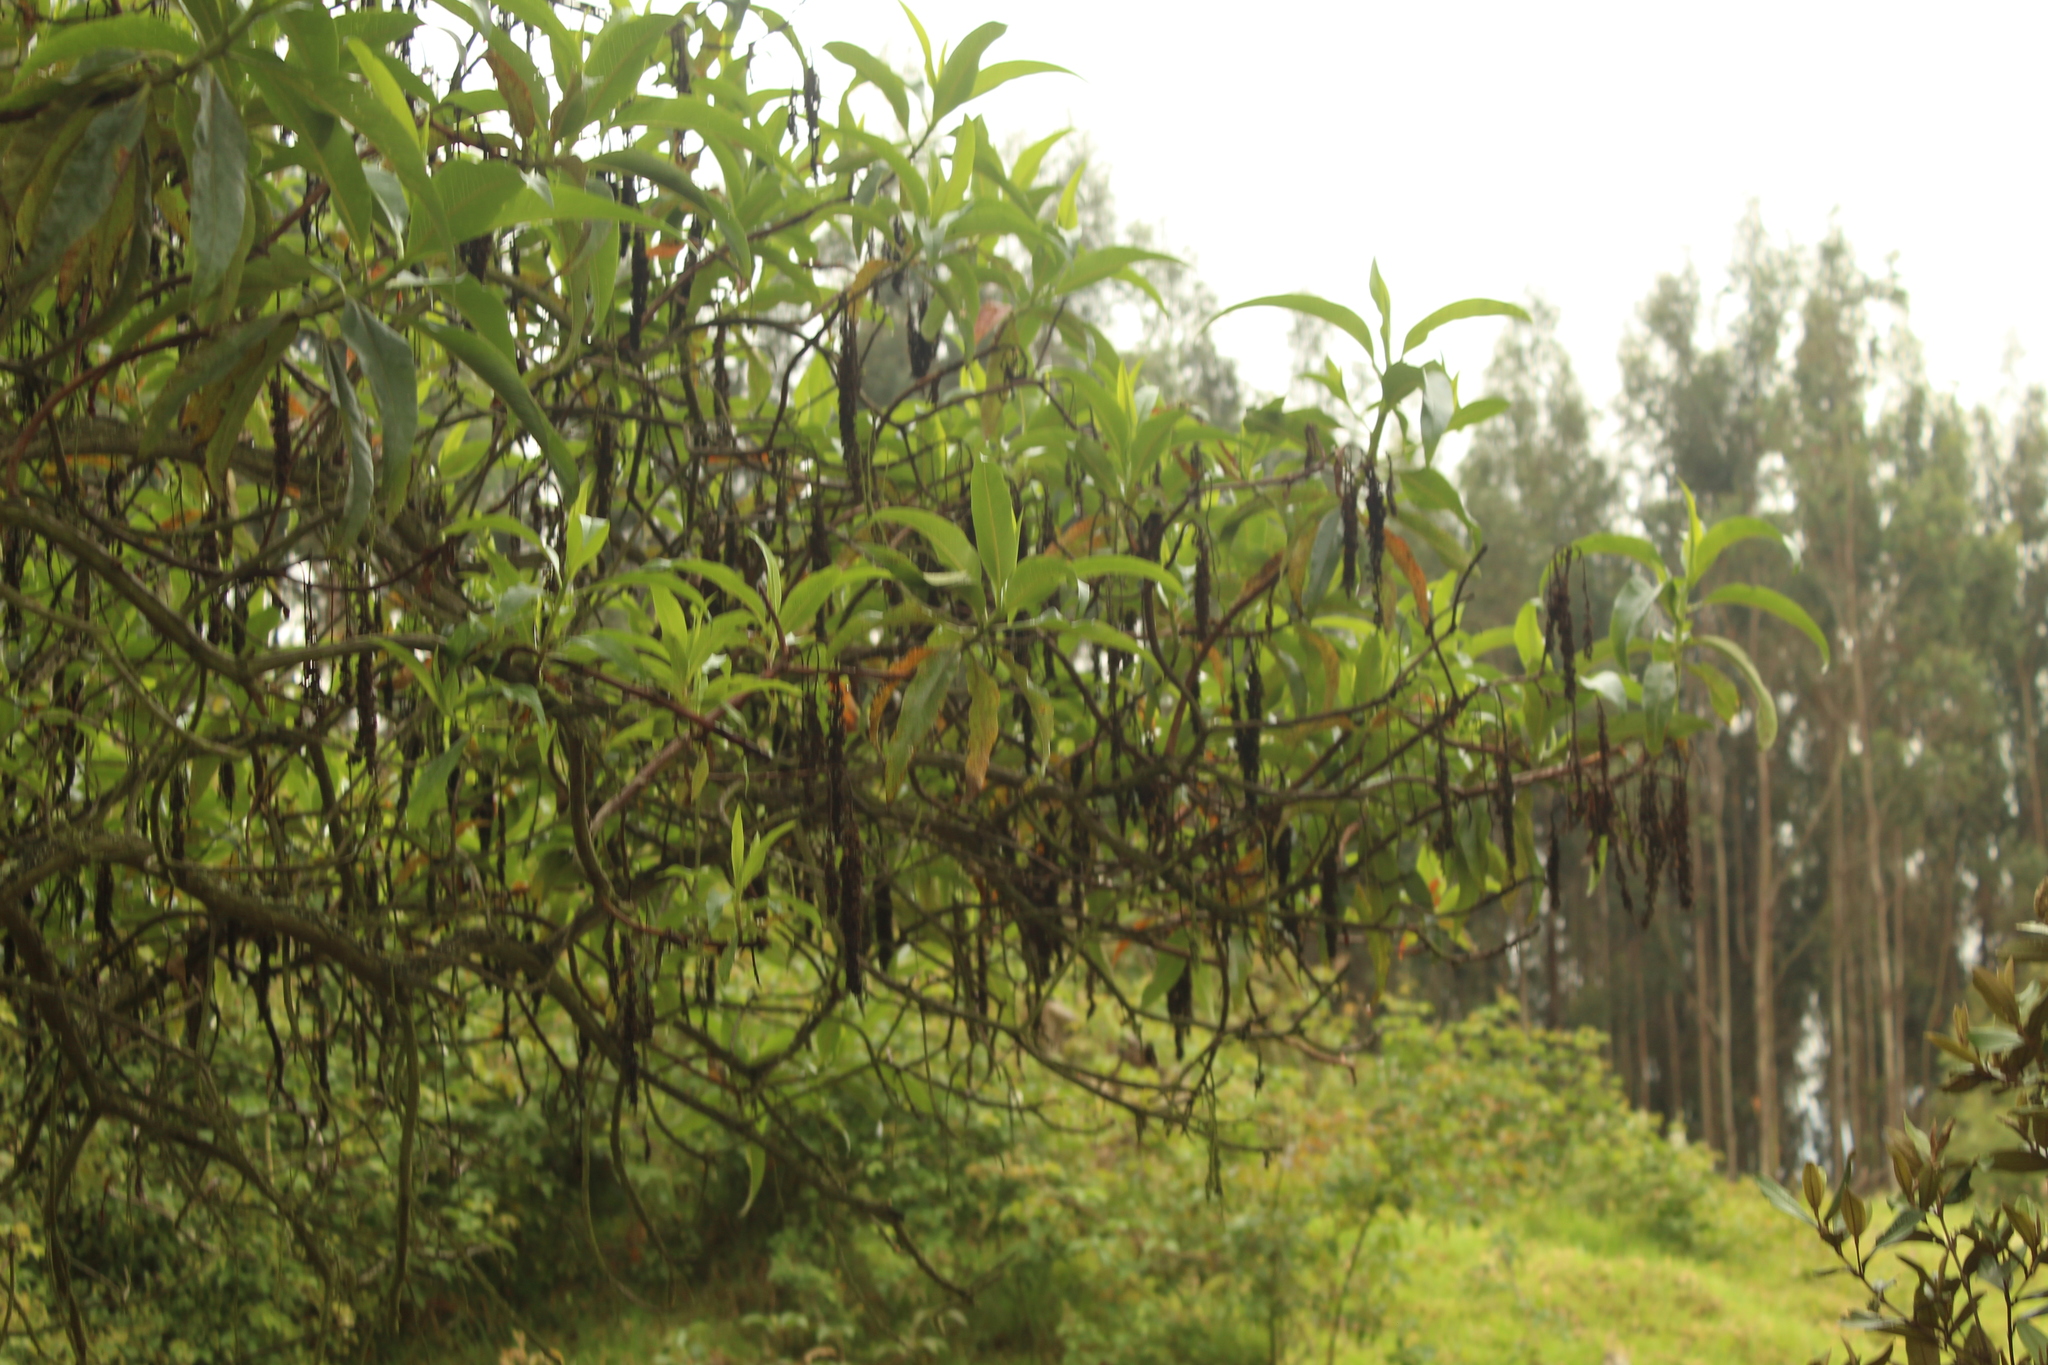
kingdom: Plantae
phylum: Tracheophyta
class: Magnoliopsida
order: Escalloniales
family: Escalloniaceae
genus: Escallonia
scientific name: Escallonia pendula
